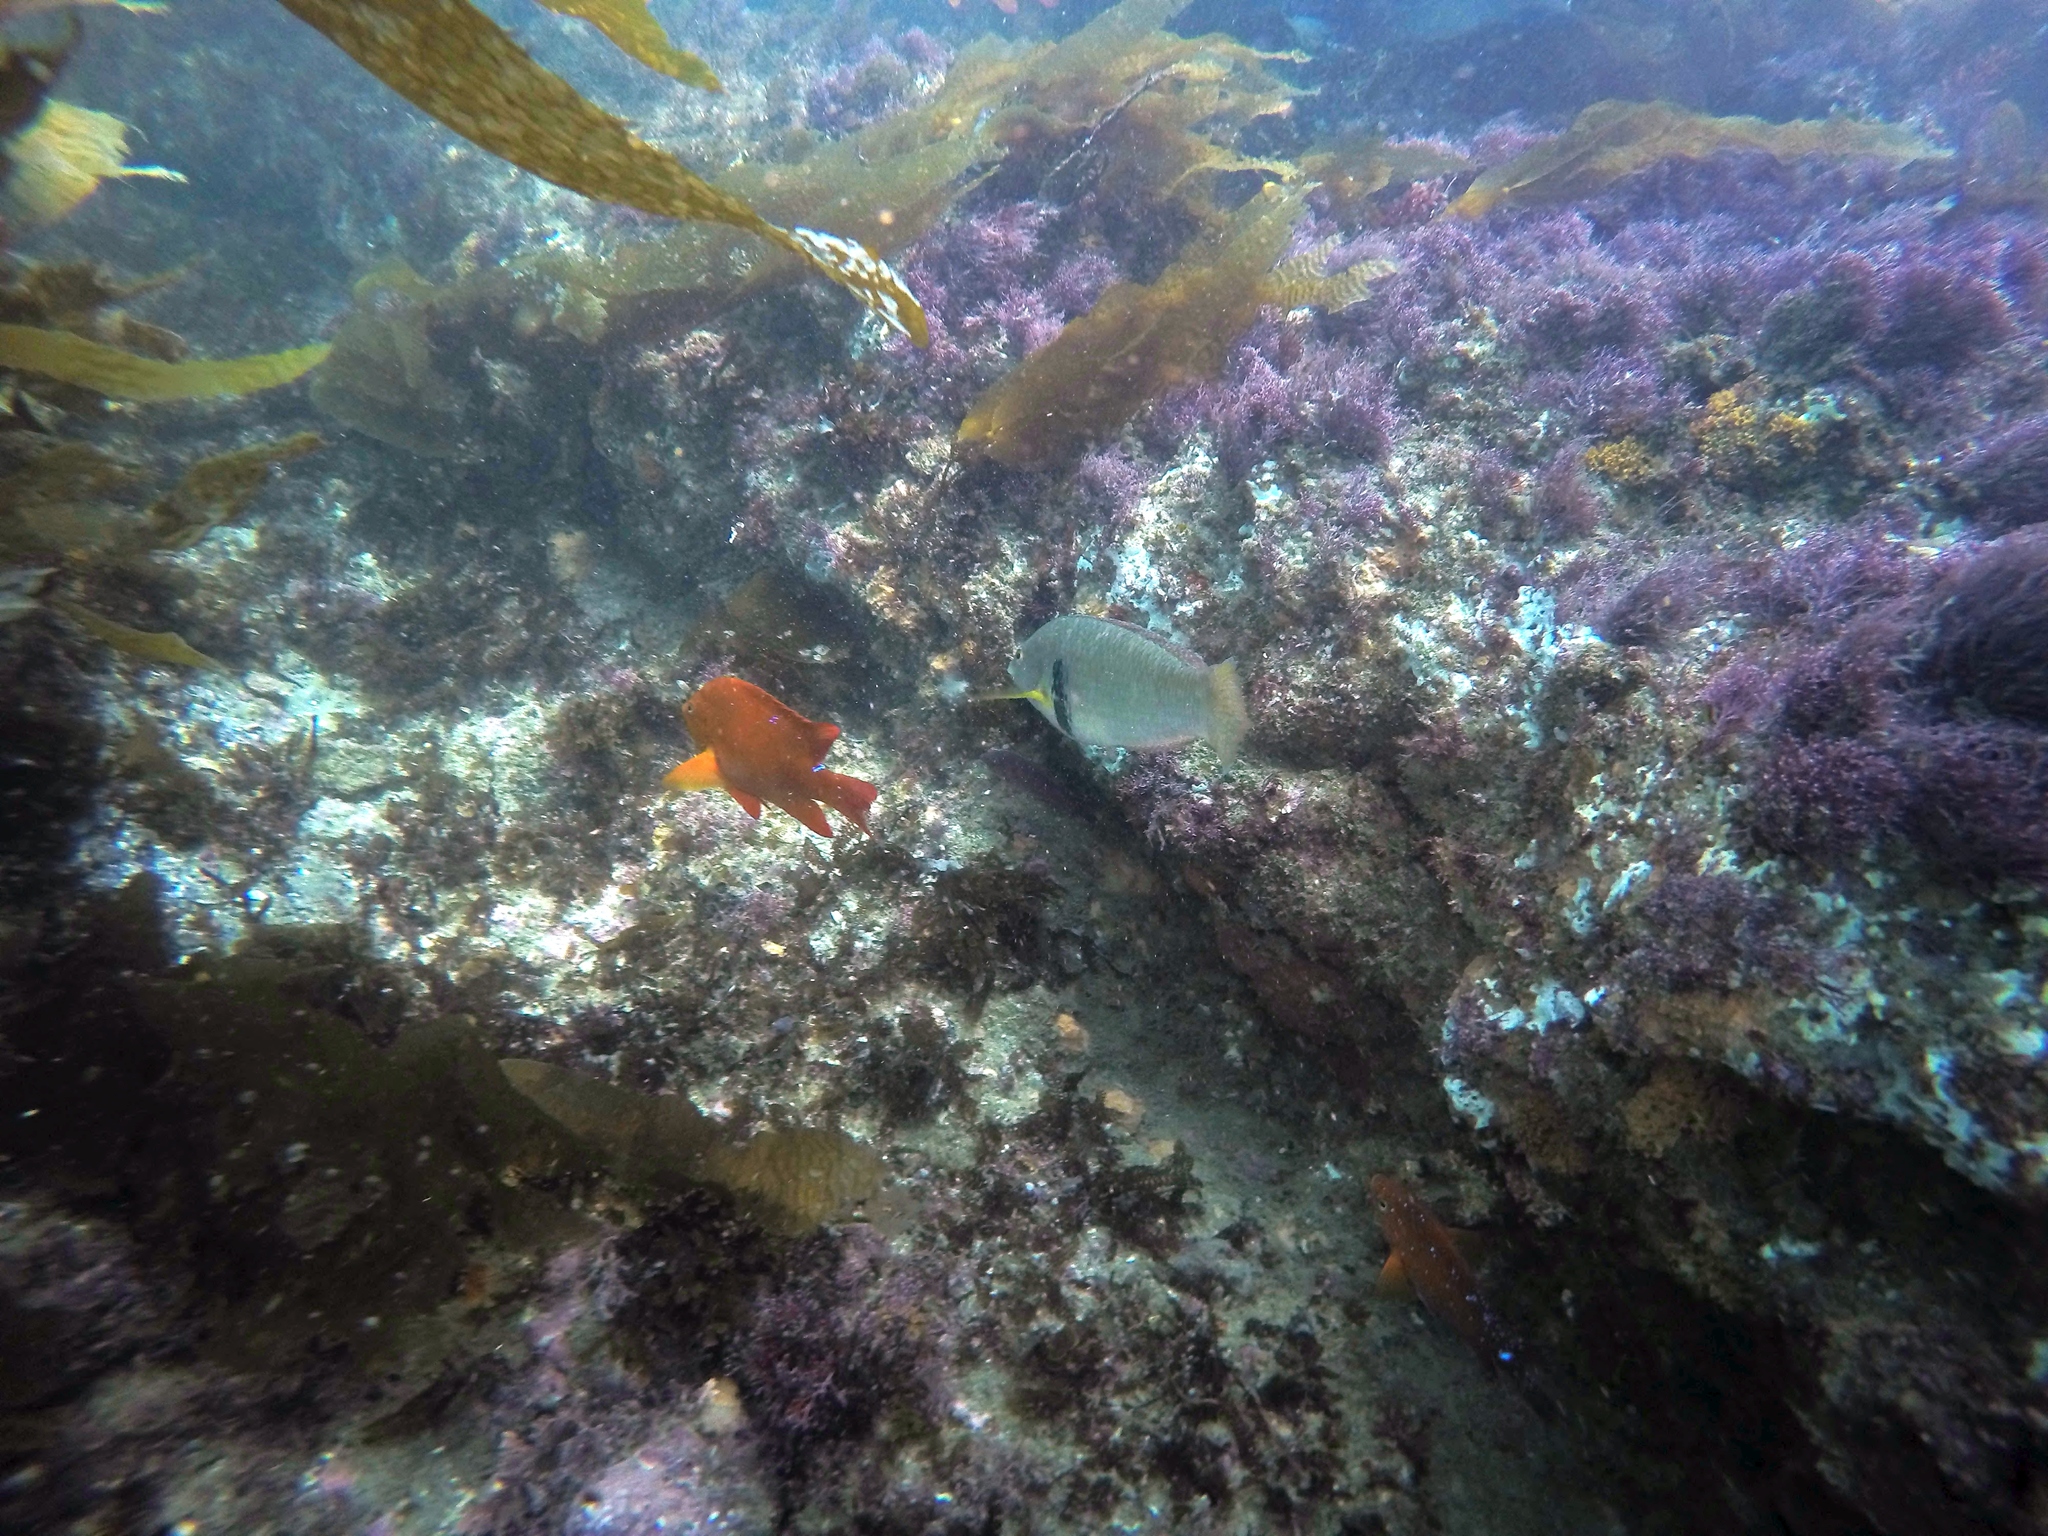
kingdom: Animalia
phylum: Chordata
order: Perciformes
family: Labridae
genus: Halichoeres
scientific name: Halichoeres semicinctus
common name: Rock wrasse
